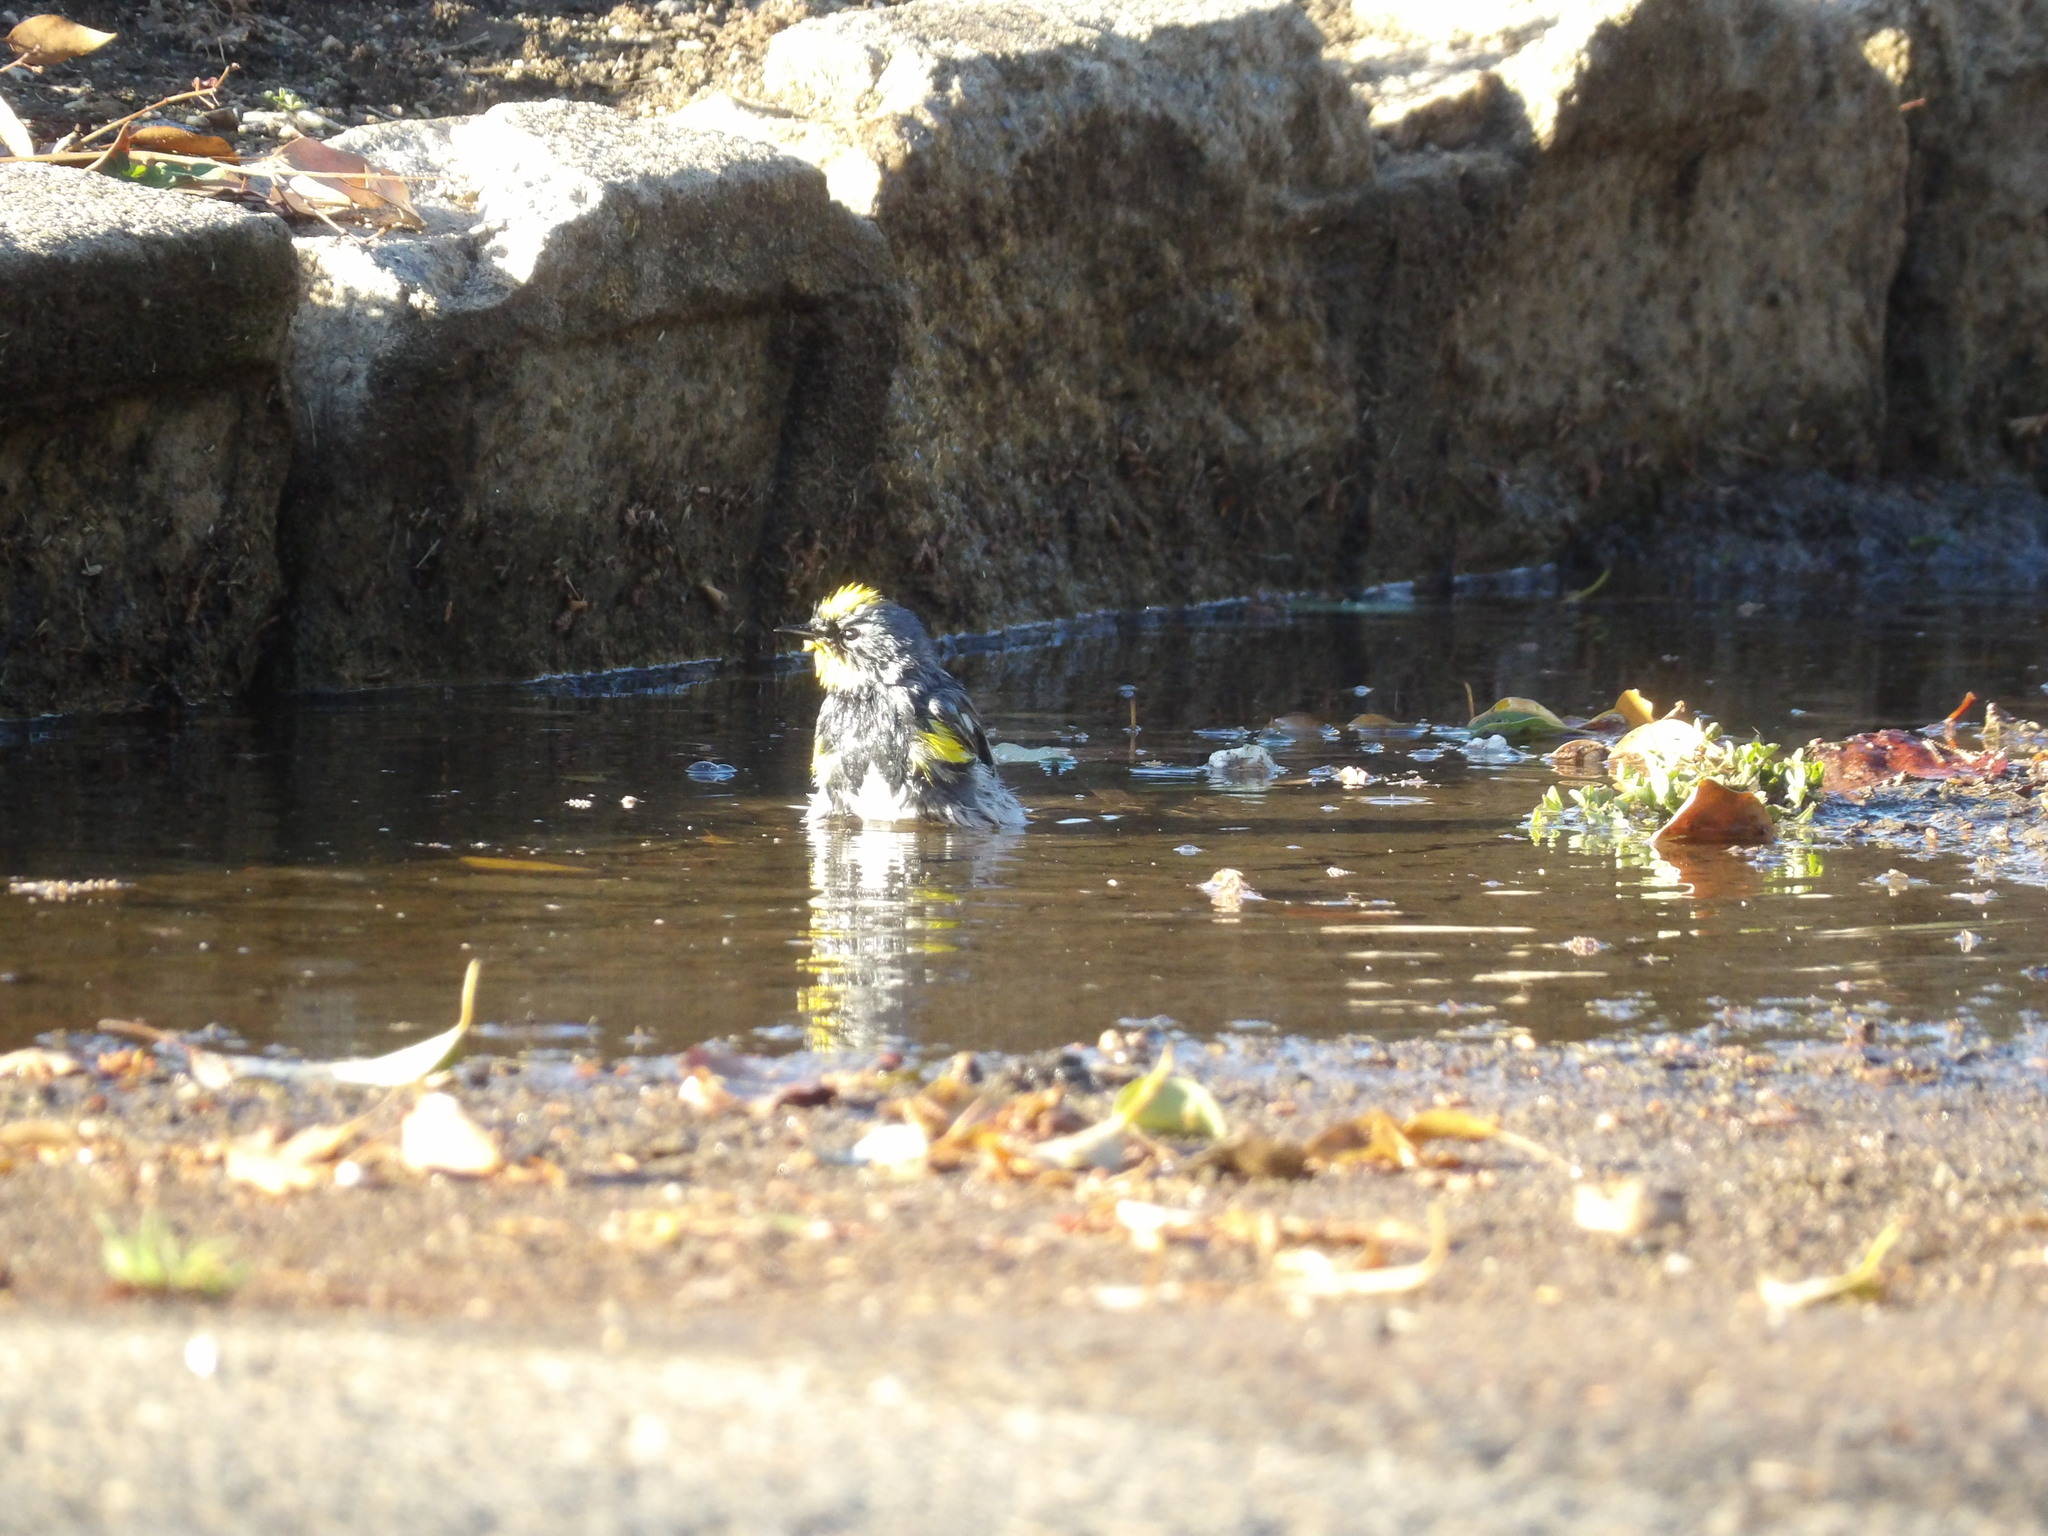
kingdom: Animalia
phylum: Chordata
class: Aves
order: Passeriformes
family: Parulidae
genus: Setophaga
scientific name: Setophaga coronata
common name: Myrtle warbler
